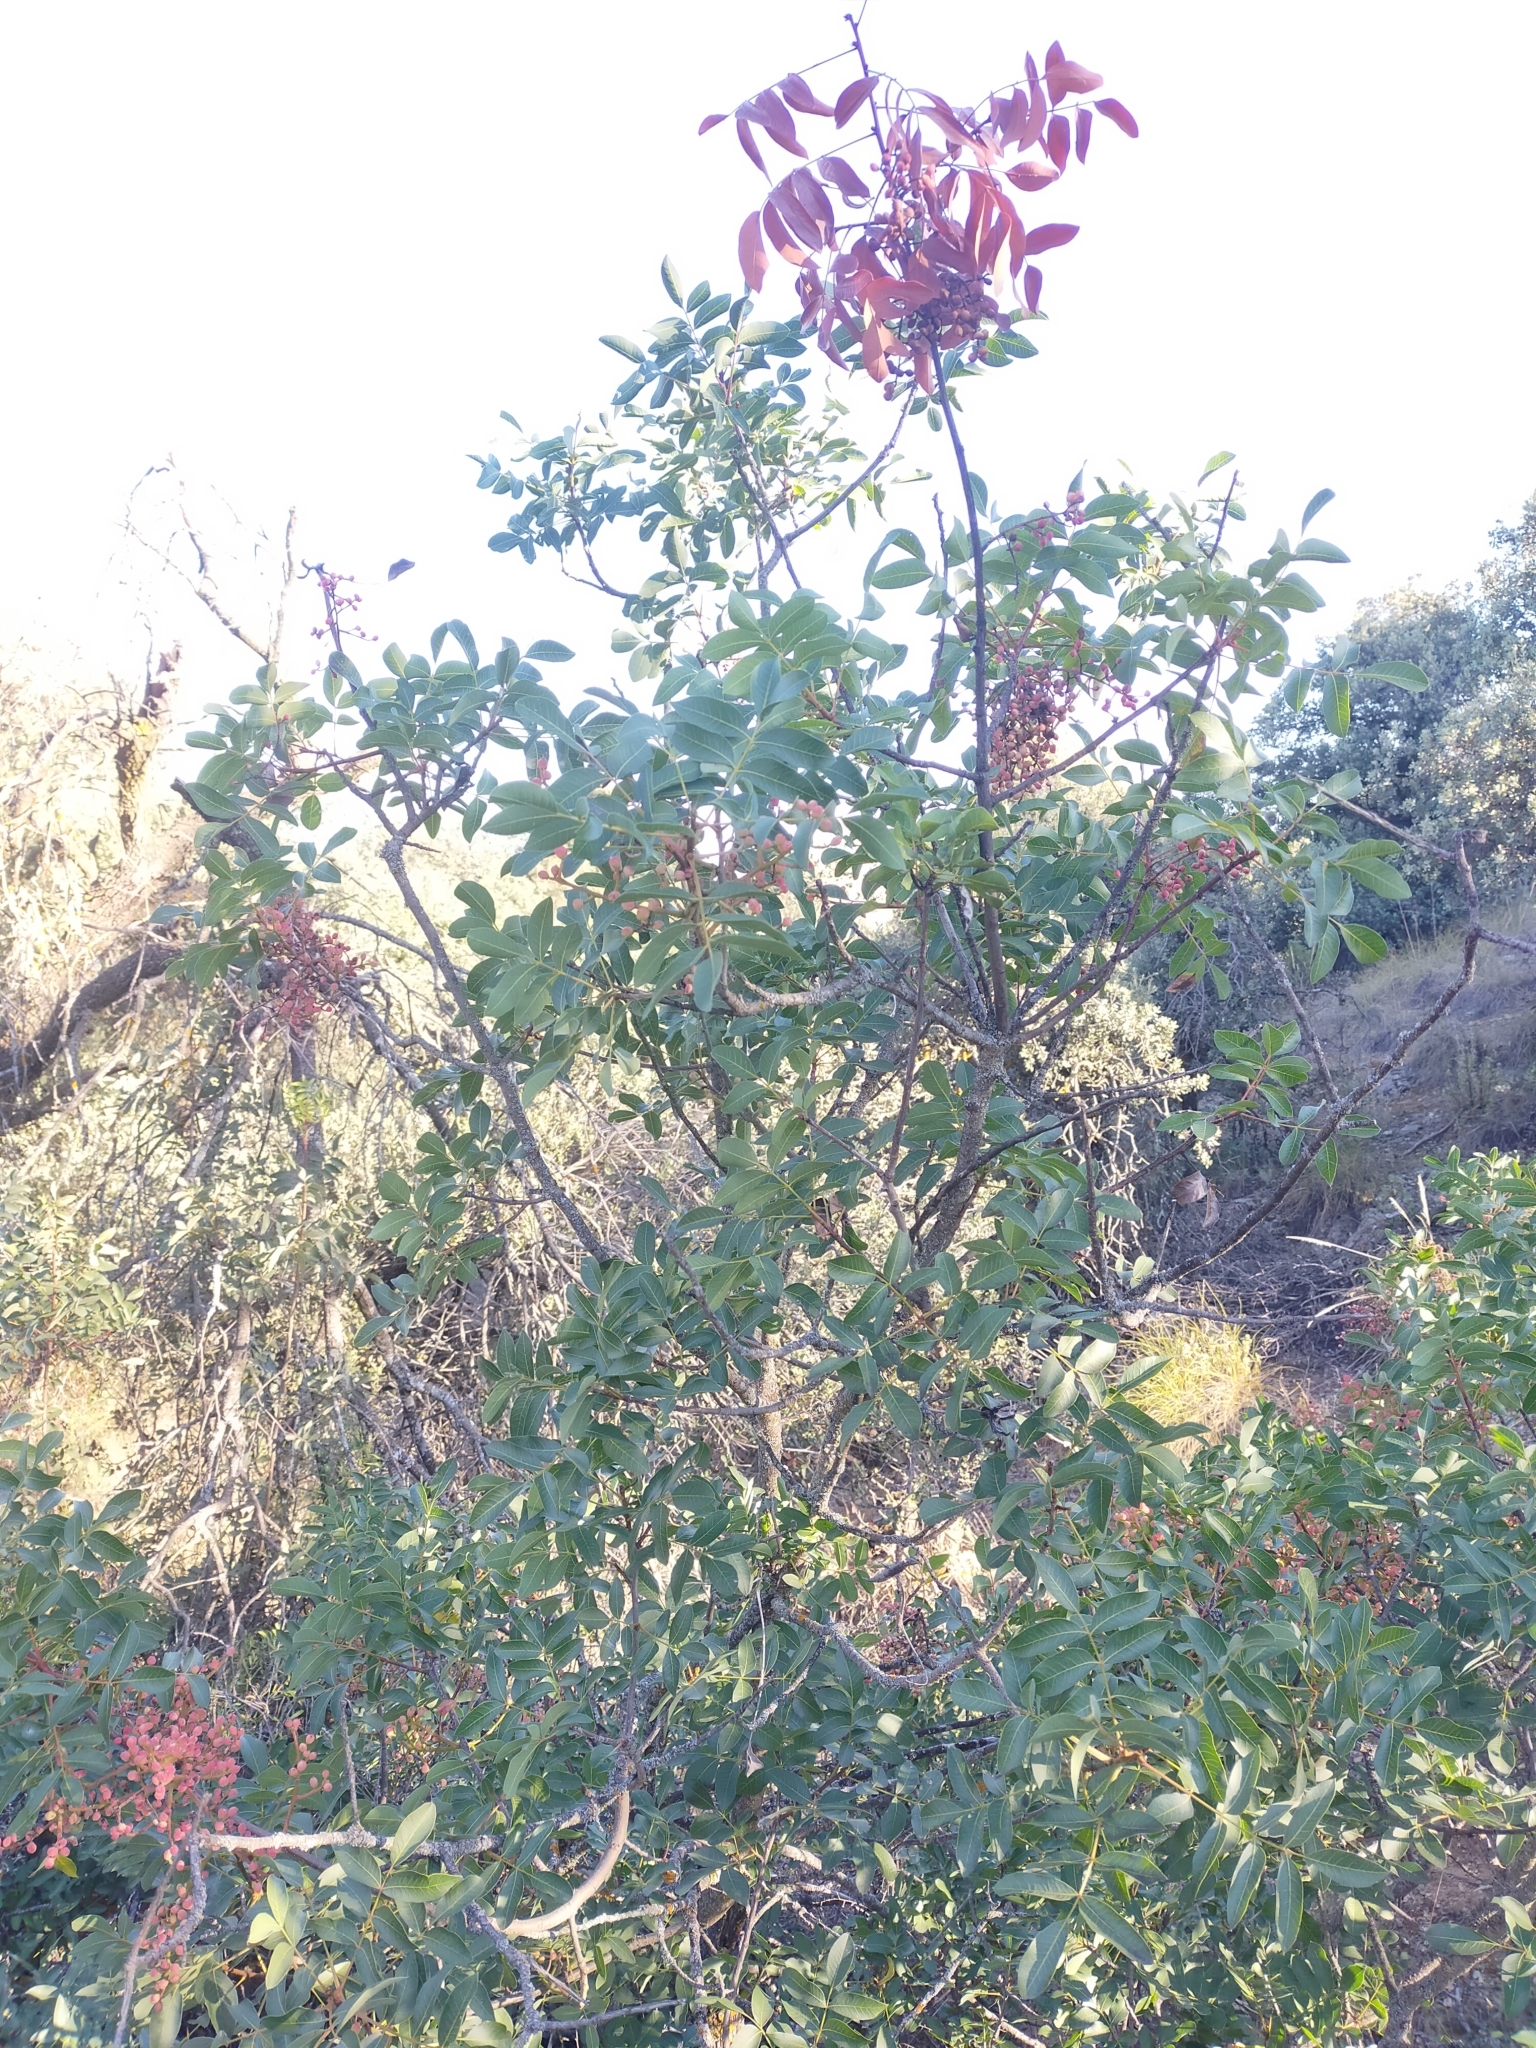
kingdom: Plantae
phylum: Tracheophyta
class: Magnoliopsida
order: Sapindales
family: Anacardiaceae
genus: Pistacia
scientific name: Pistacia terebinthus
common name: Terebinth
